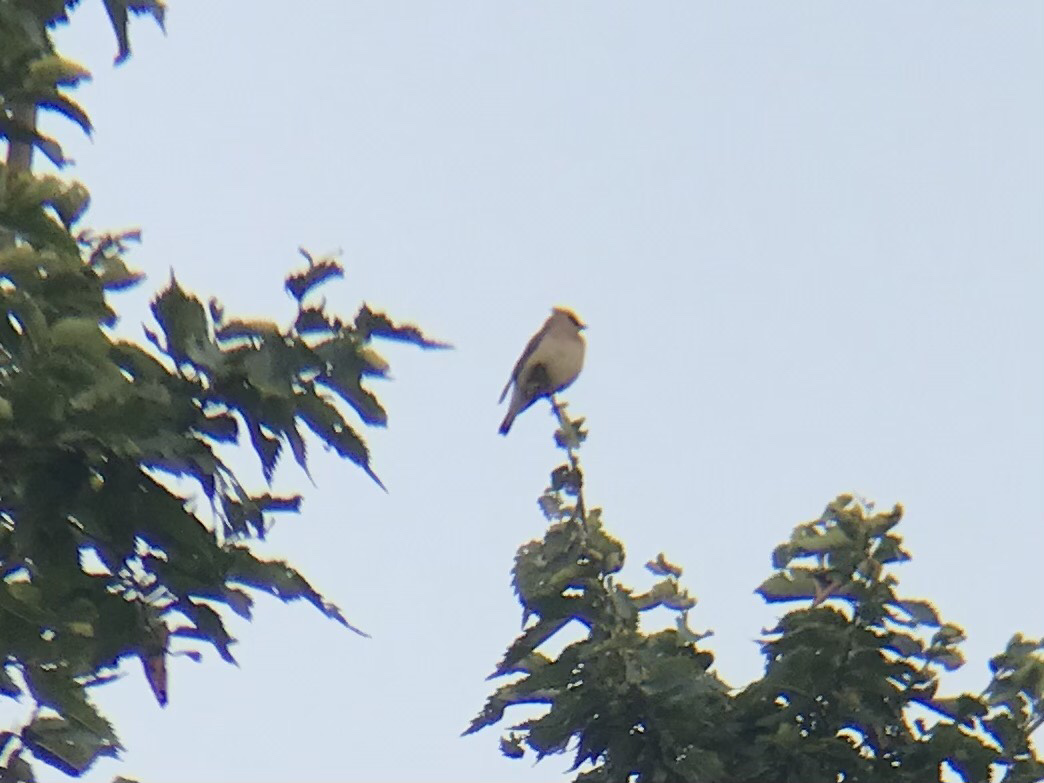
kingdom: Animalia
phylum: Chordata
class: Aves
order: Passeriformes
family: Bombycillidae
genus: Bombycilla
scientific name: Bombycilla cedrorum
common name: Cedar waxwing
